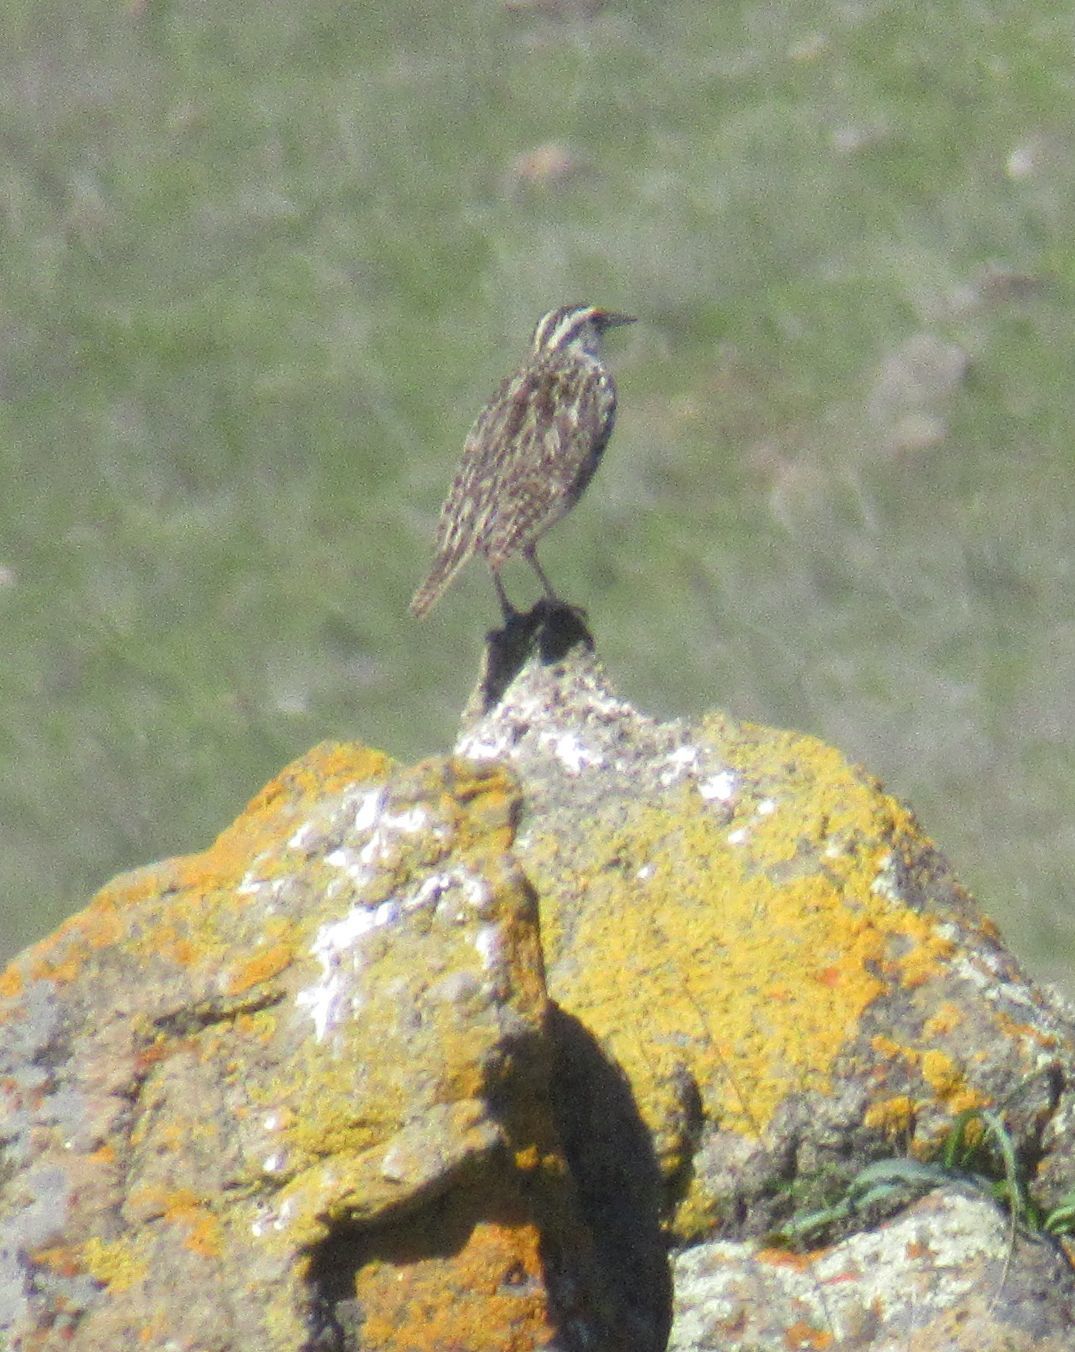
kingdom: Animalia
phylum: Chordata
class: Aves
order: Passeriformes
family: Icteridae
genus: Sturnella
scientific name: Sturnella neglecta
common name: Western meadowlark
